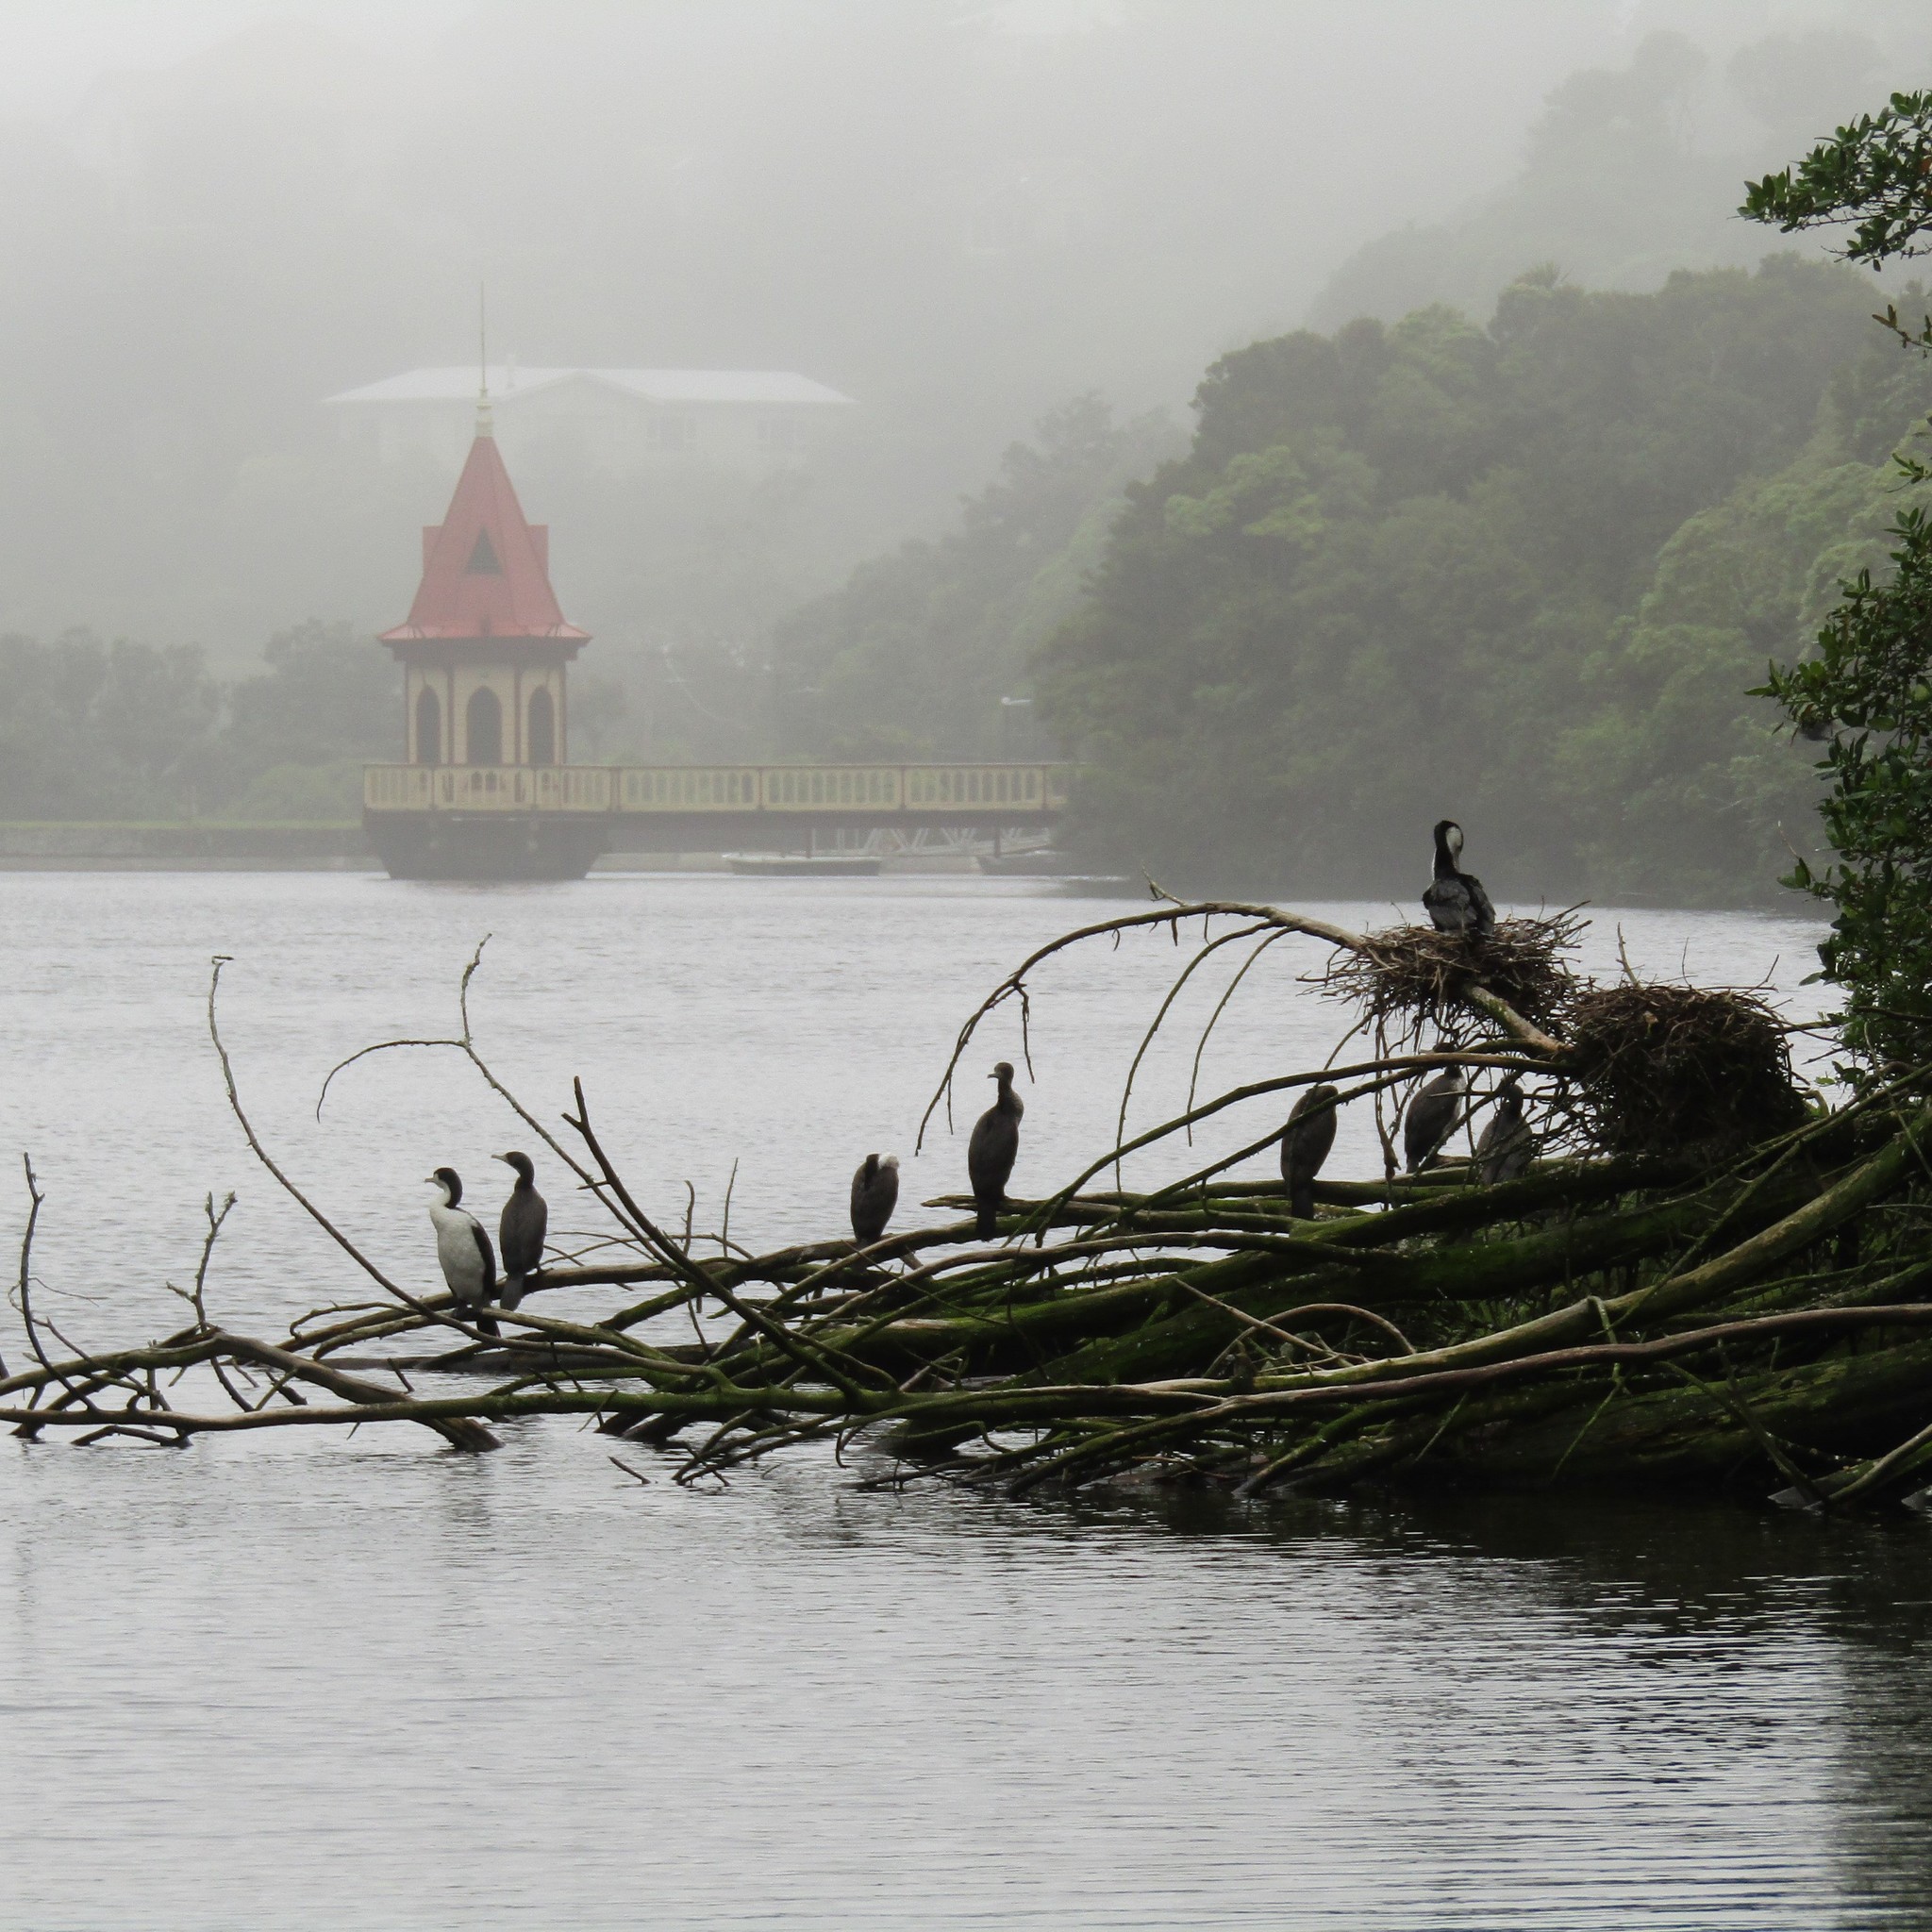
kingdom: Animalia
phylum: Chordata
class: Aves
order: Suliformes
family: Phalacrocoracidae
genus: Phalacrocorax
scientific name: Phalacrocorax varius
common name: Pied cormorant
